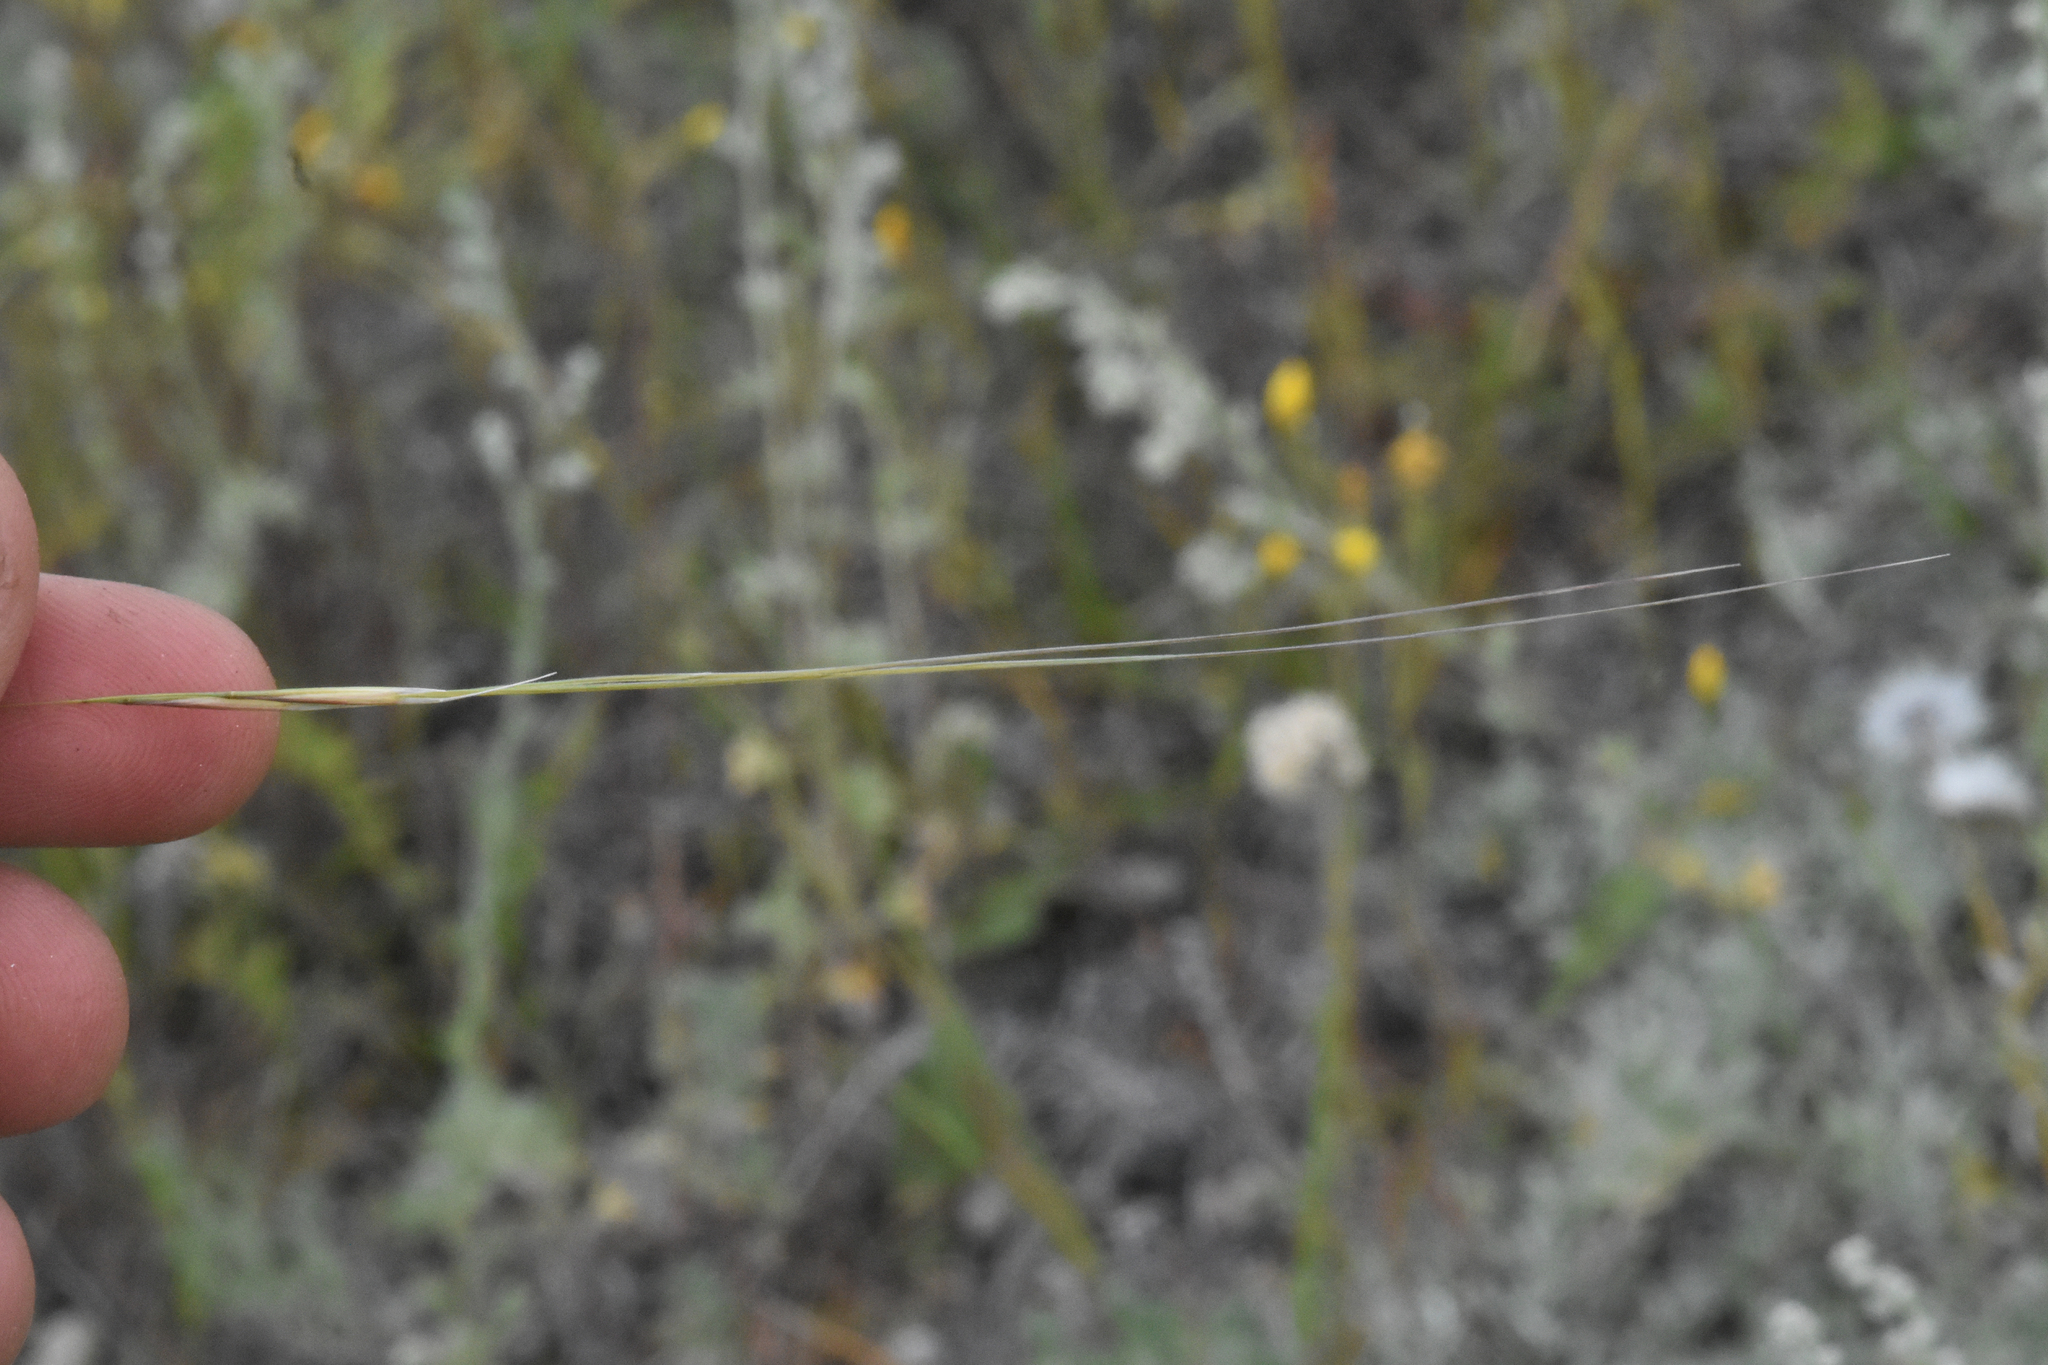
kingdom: Plantae
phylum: Tracheophyta
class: Liliopsida
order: Poales
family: Poaceae
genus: Hesperostipa
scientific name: Hesperostipa comata
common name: Needle-and-thread grass
